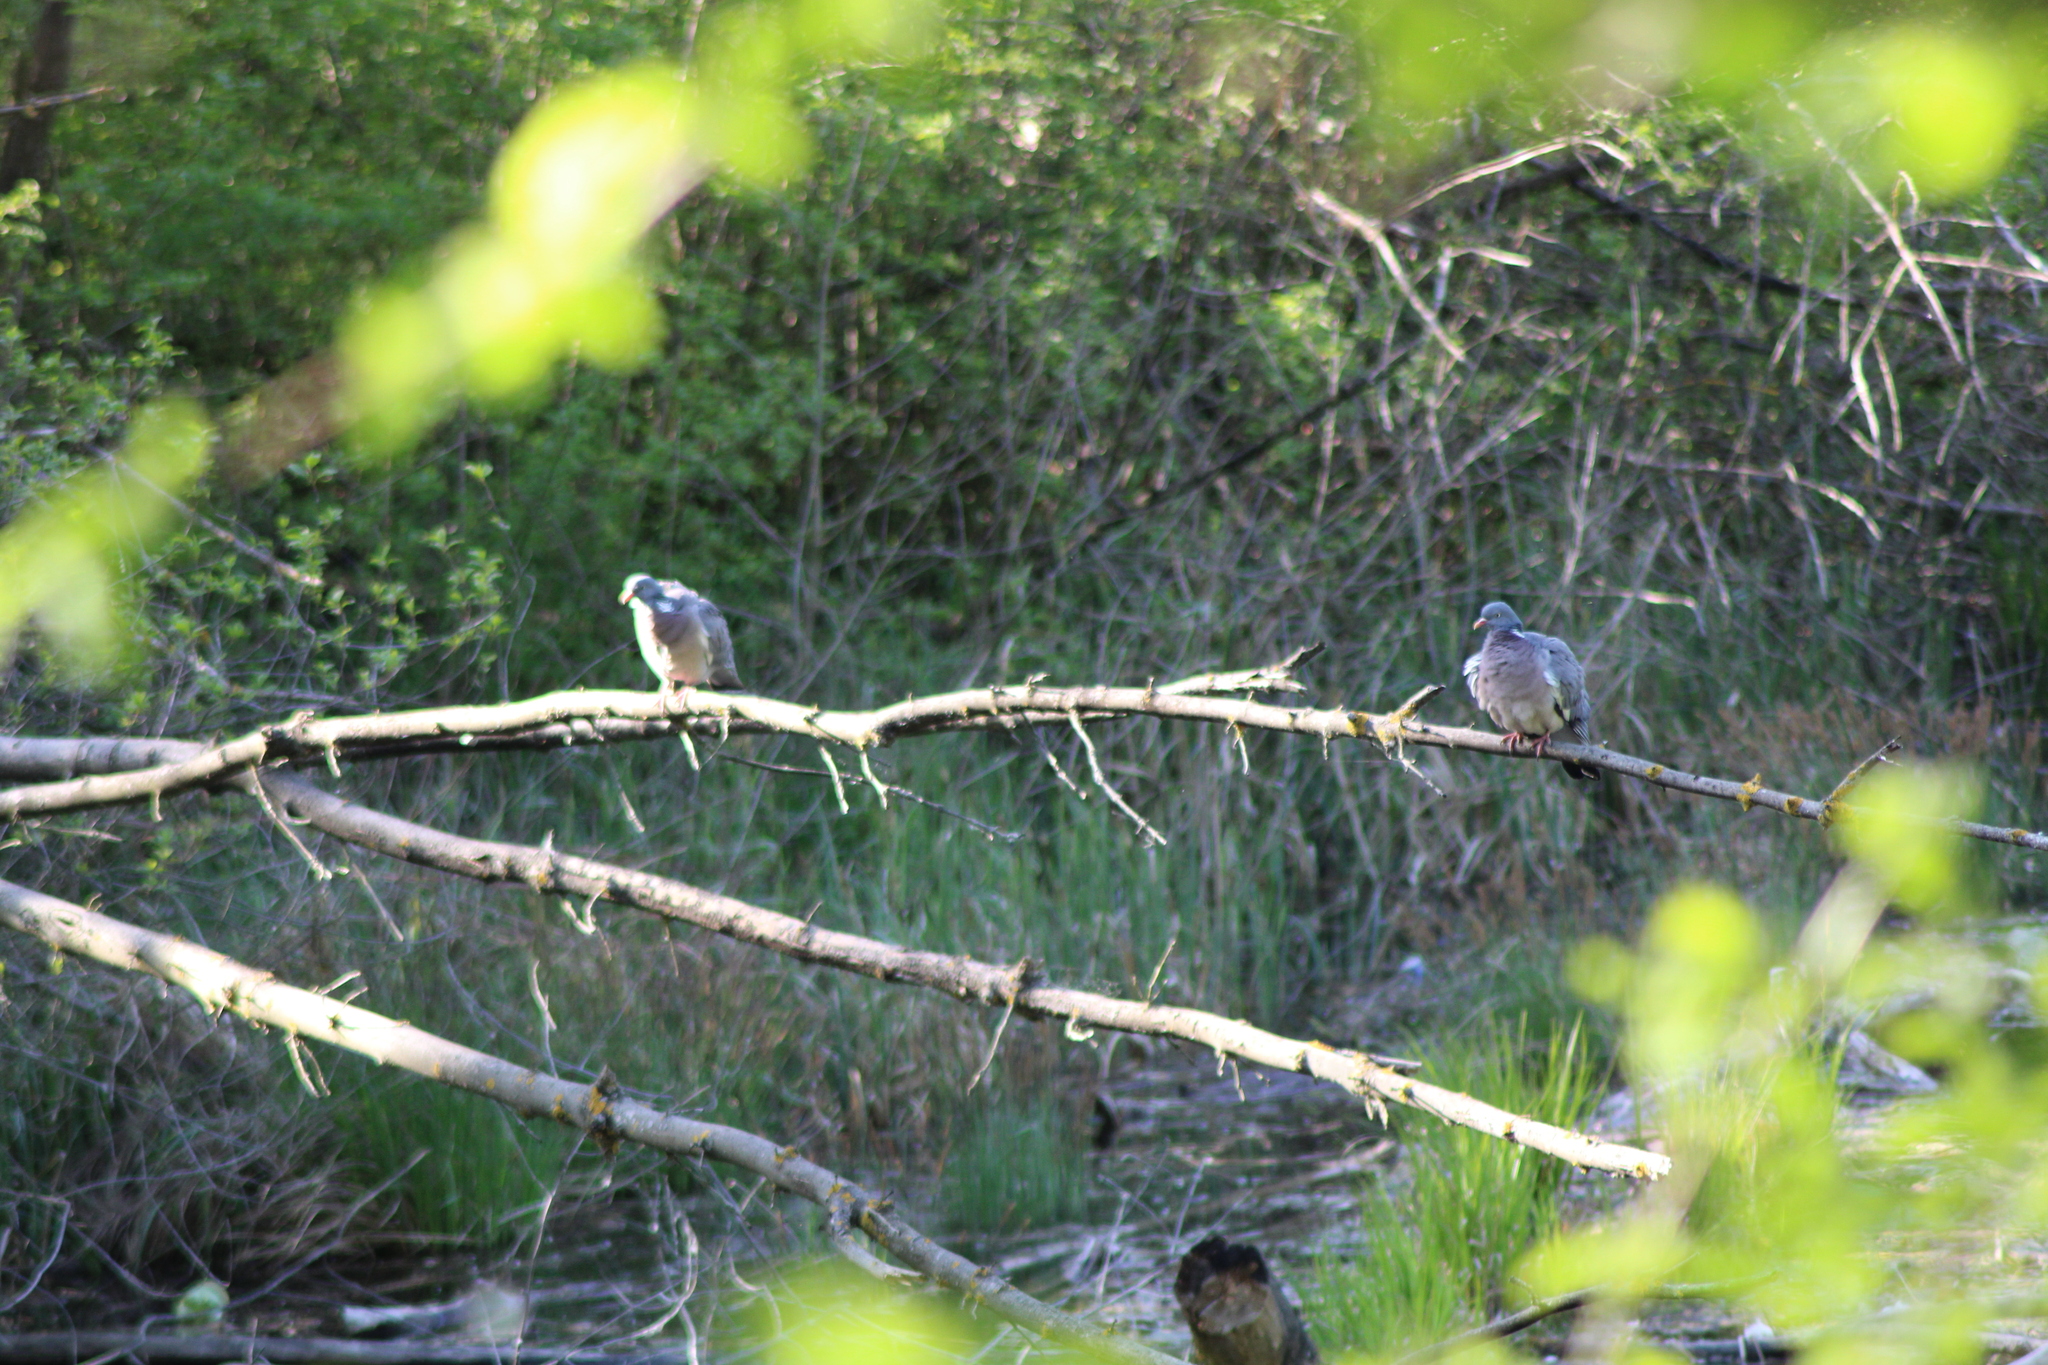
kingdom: Animalia
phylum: Chordata
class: Aves
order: Columbiformes
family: Columbidae
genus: Columba
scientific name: Columba palumbus
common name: Common wood pigeon
